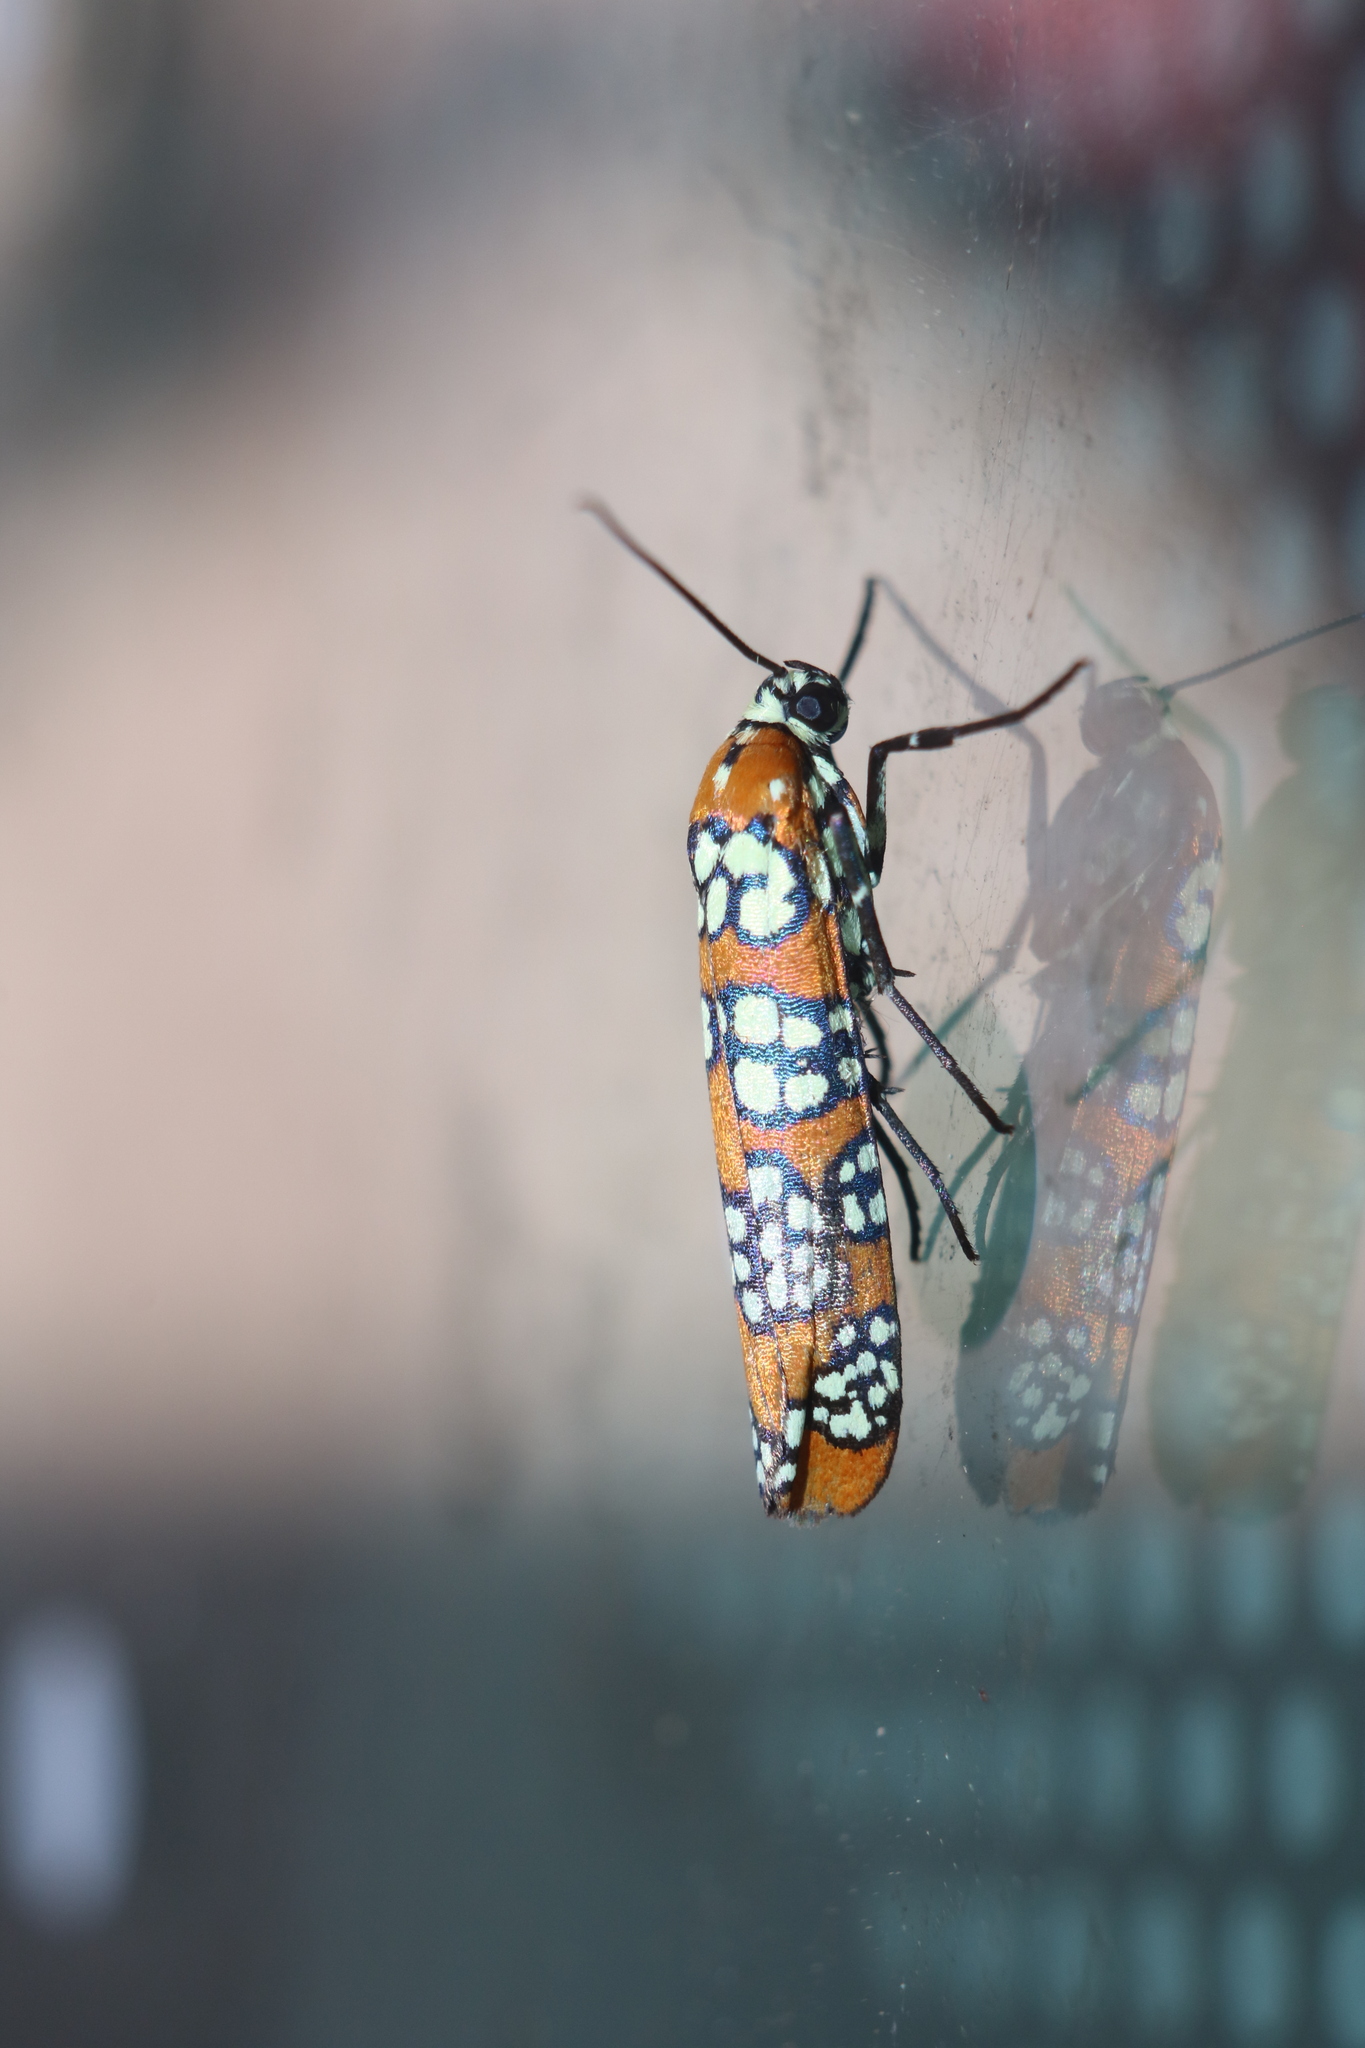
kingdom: Animalia
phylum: Arthropoda
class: Insecta
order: Lepidoptera
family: Attevidae
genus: Atteva
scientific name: Atteva punctella
